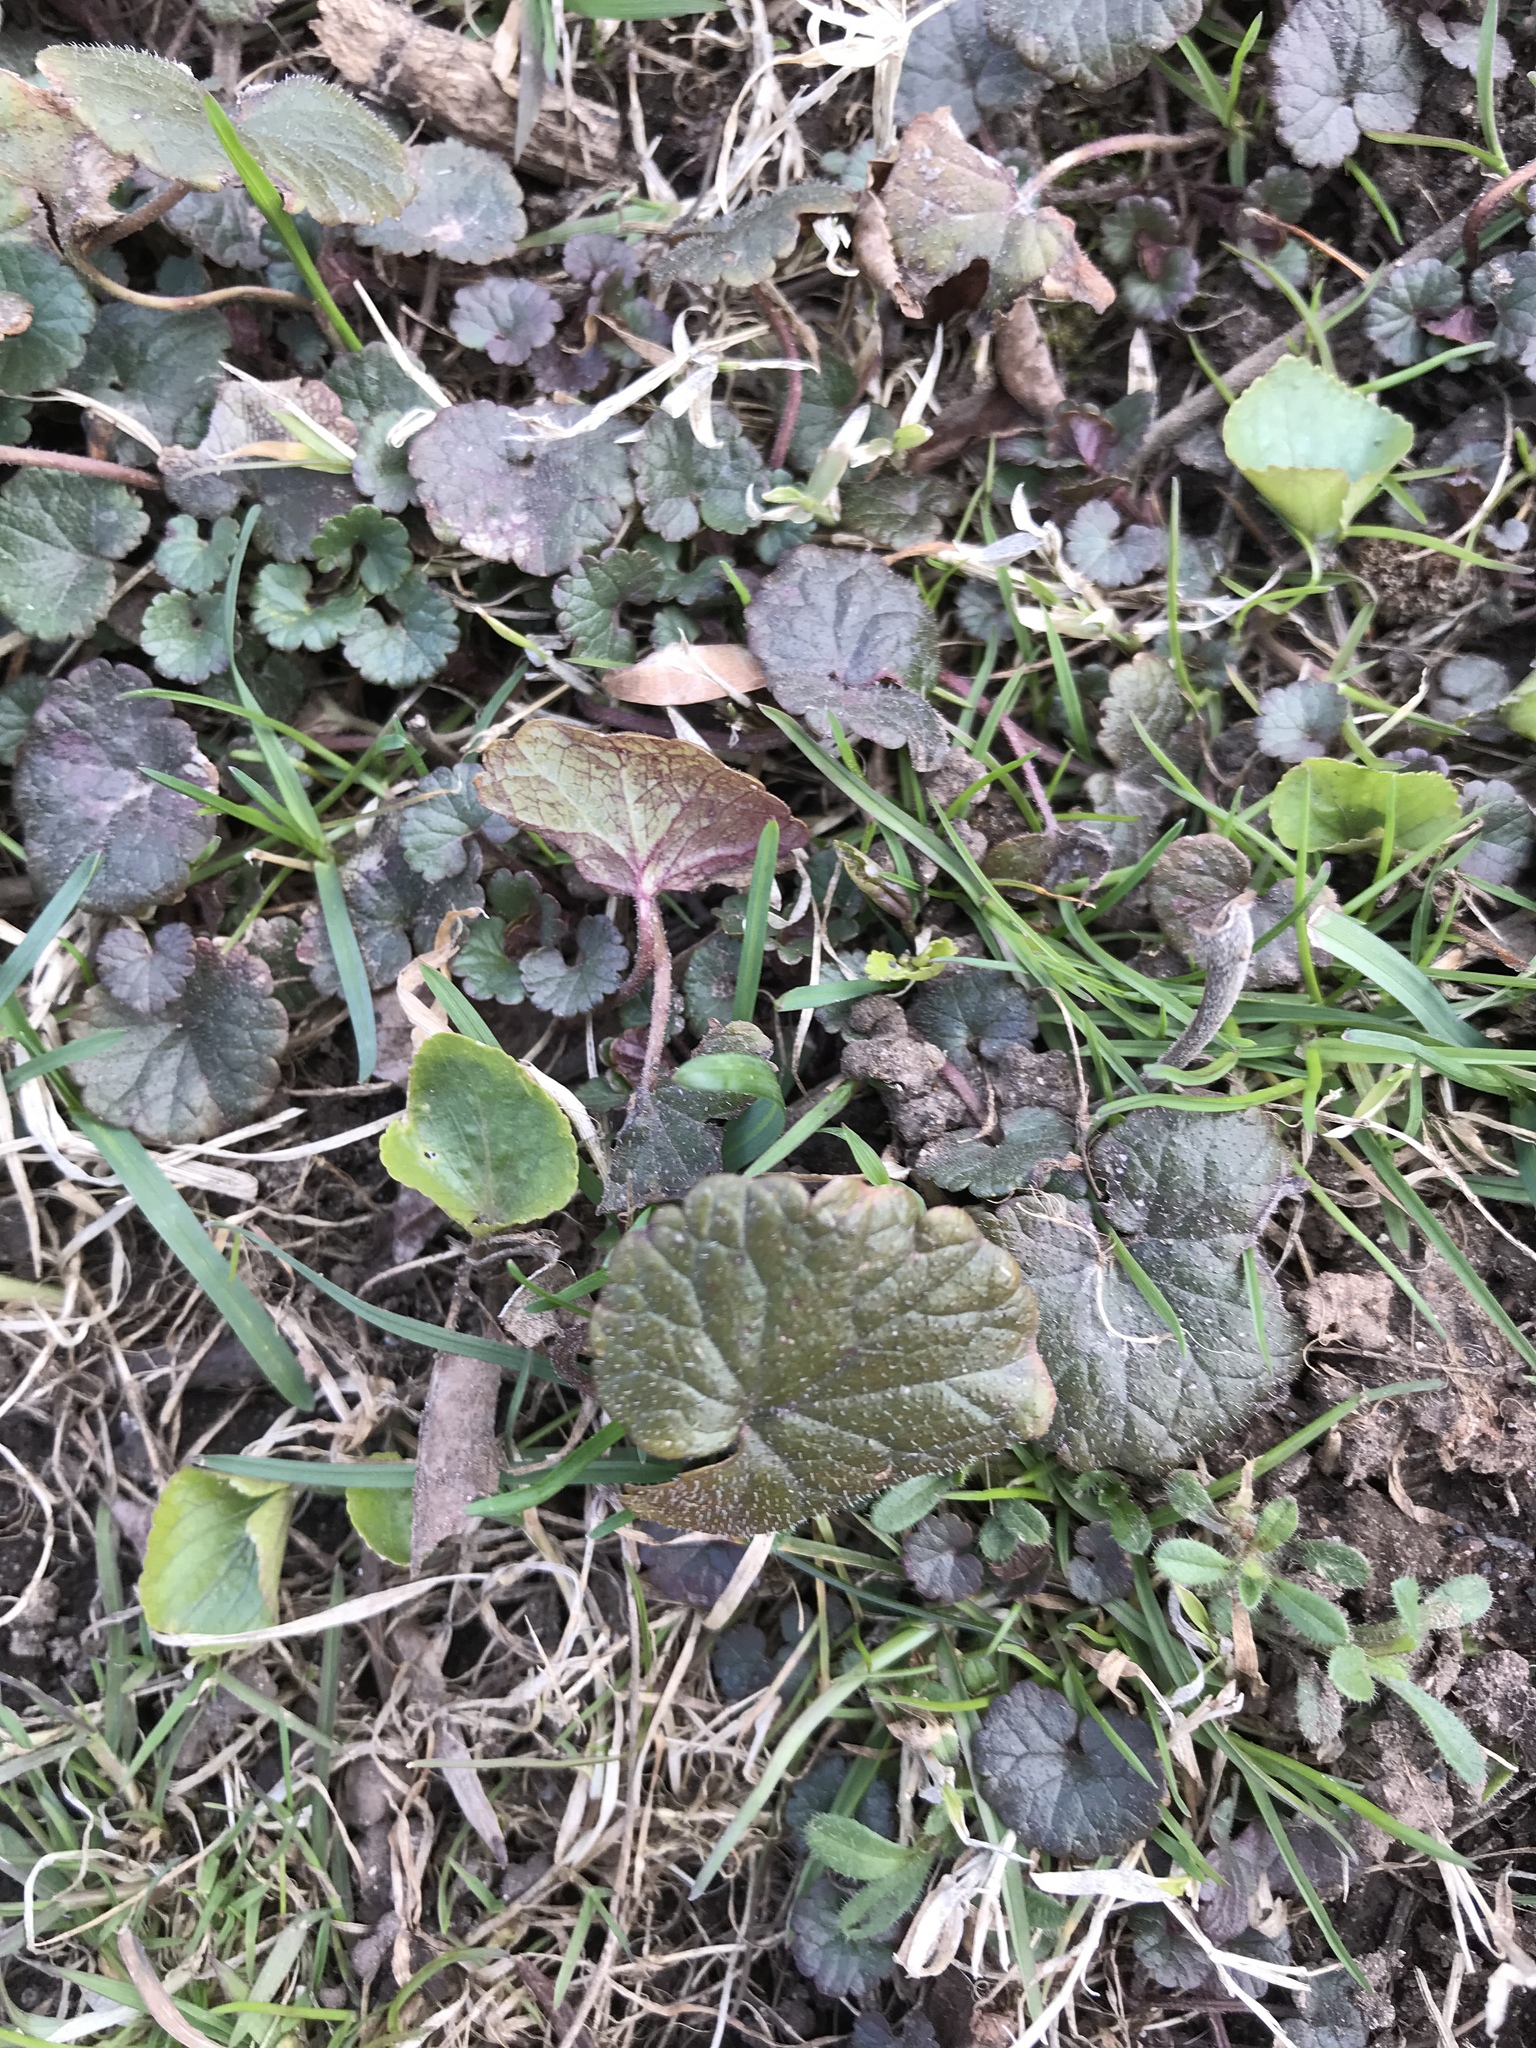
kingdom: Plantae
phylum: Tracheophyta
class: Magnoliopsida
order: Lamiales
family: Lamiaceae
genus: Glechoma
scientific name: Glechoma hederacea
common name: Ground ivy
